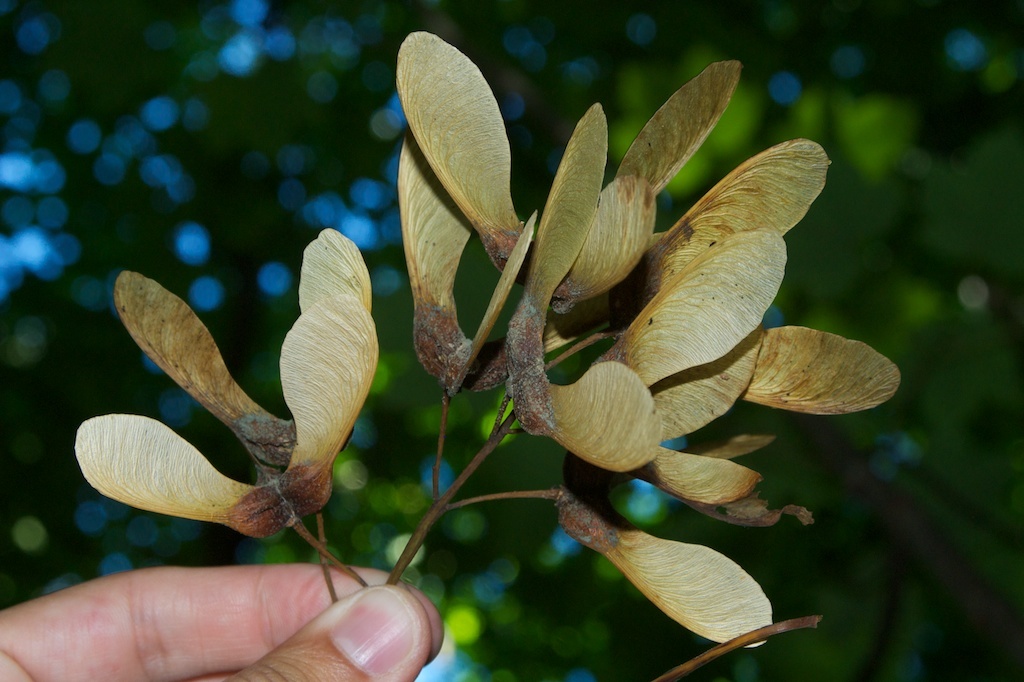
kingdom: Plantae
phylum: Tracheophyta
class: Magnoliopsida
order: Sapindales
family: Sapindaceae
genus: Acer
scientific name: Acer pseudoplatanus
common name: Sycamore
